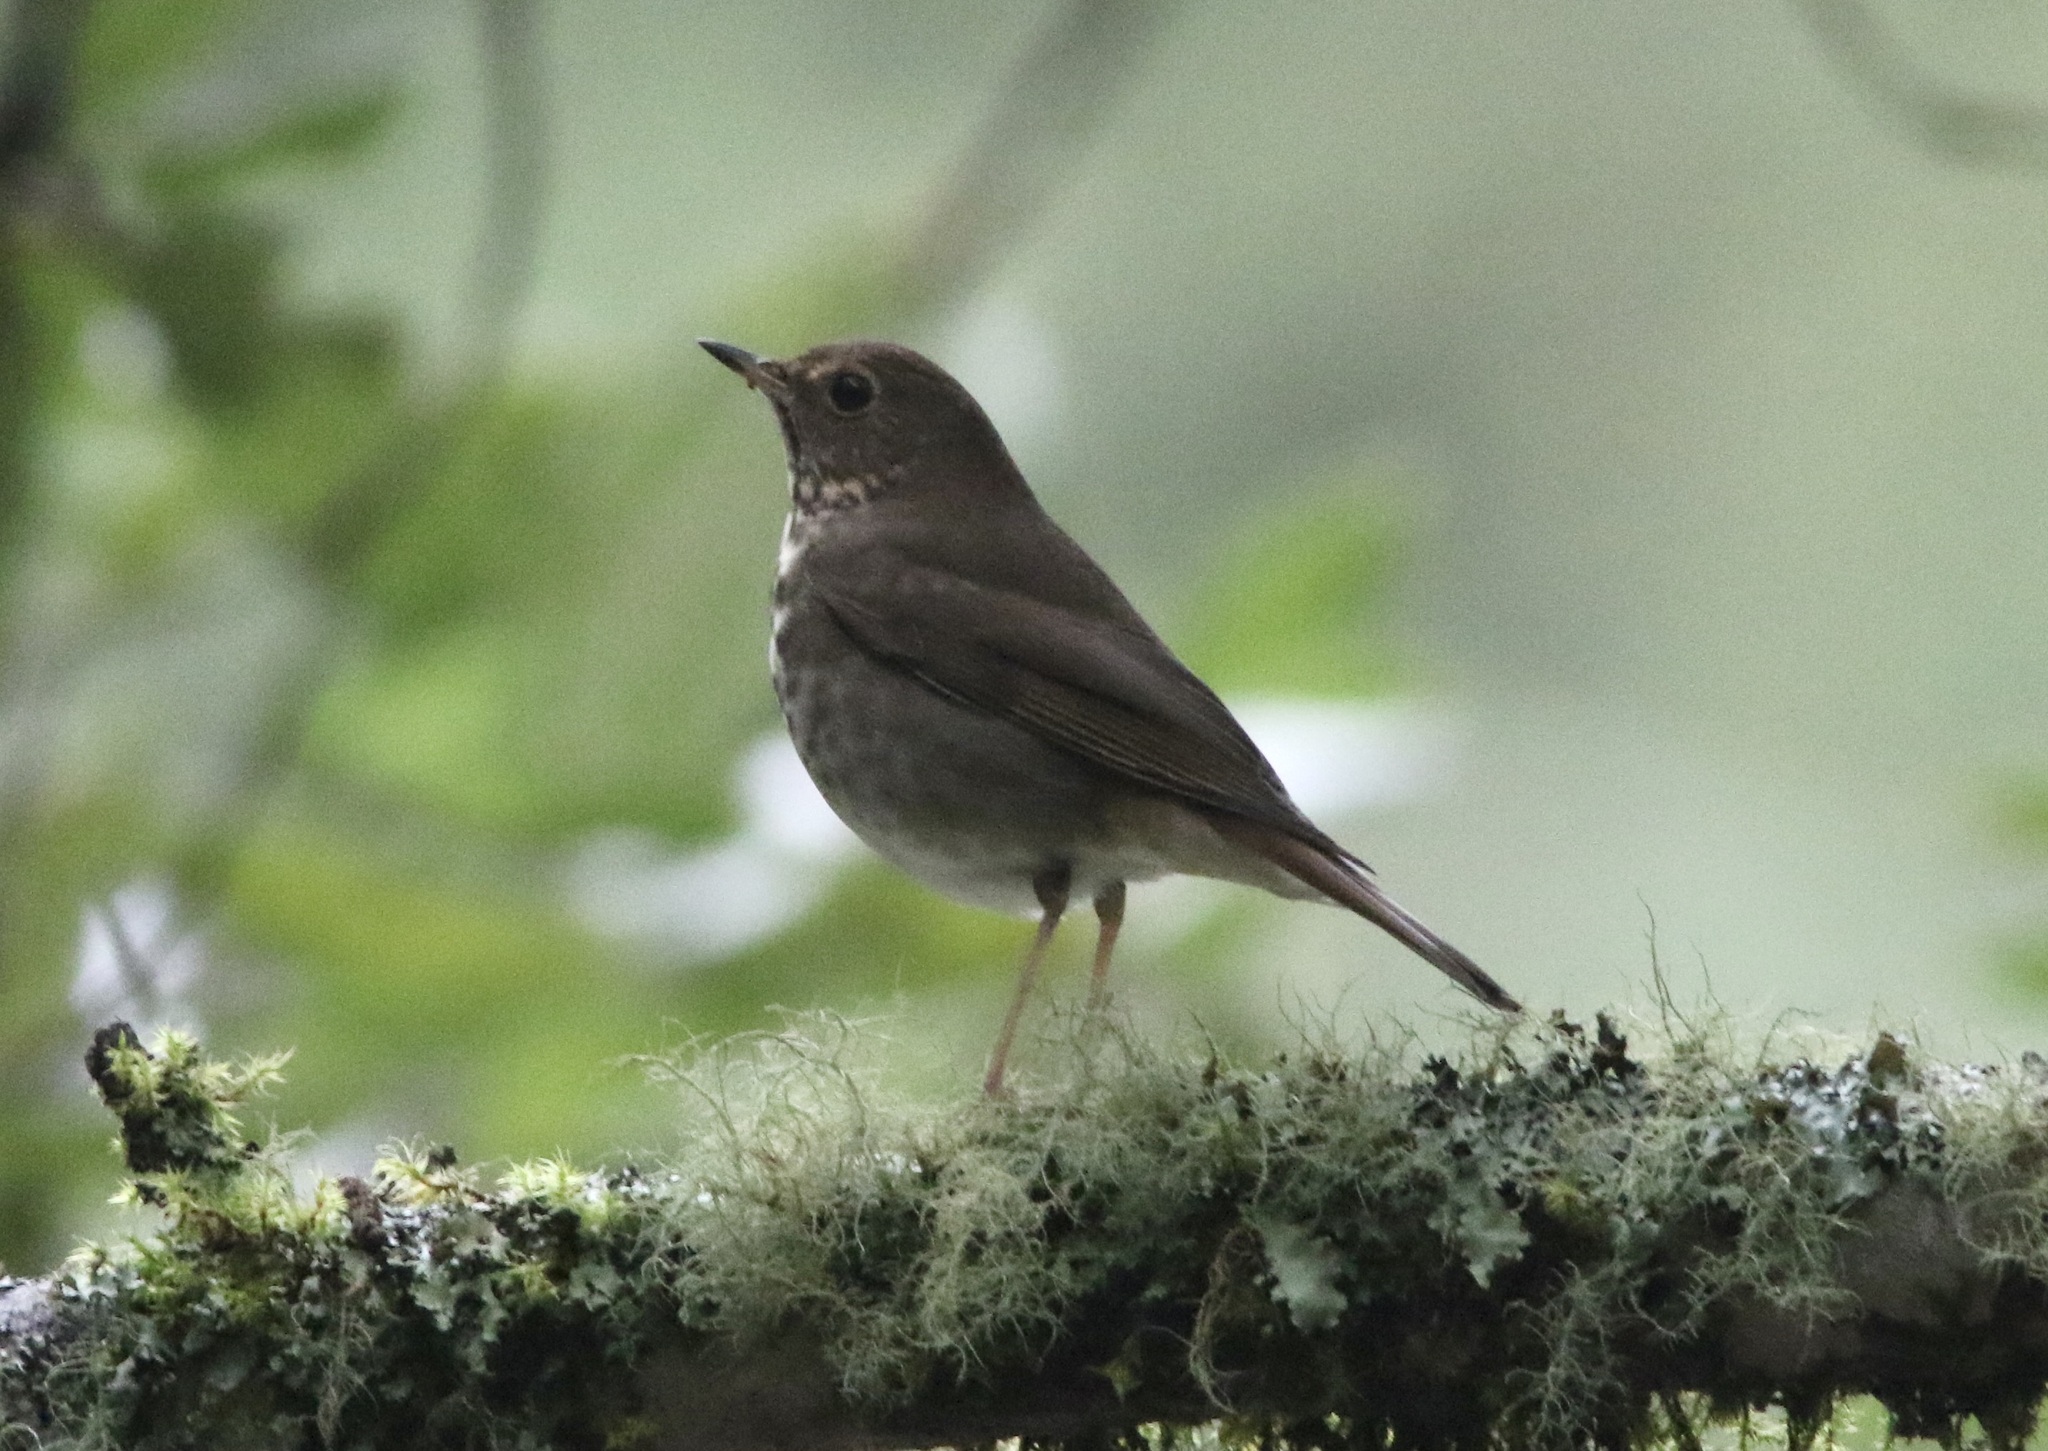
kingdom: Animalia
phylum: Chordata
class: Aves
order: Passeriformes
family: Turdidae
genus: Catharus
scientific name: Catharus guttatus
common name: Hermit thrush
